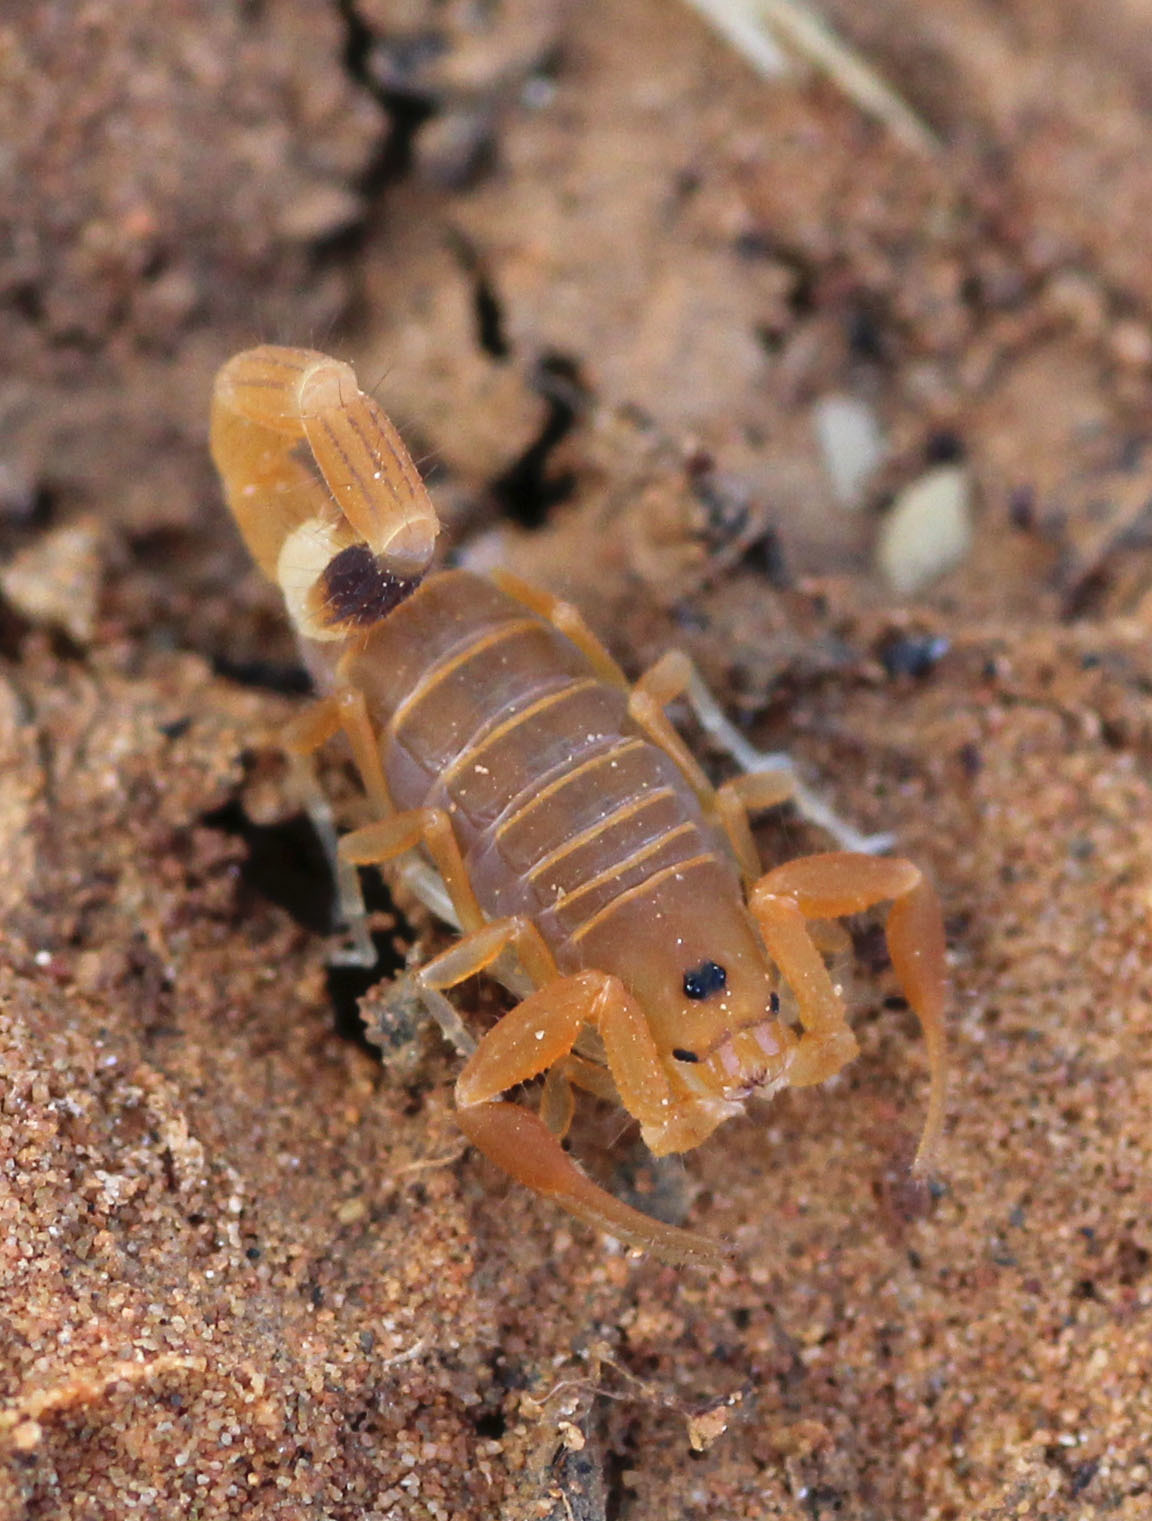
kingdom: Animalia
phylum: Arthropoda
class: Arachnida
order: Scorpiones
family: Buthidae
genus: Uroplectes
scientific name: Uroplectes carinatus
